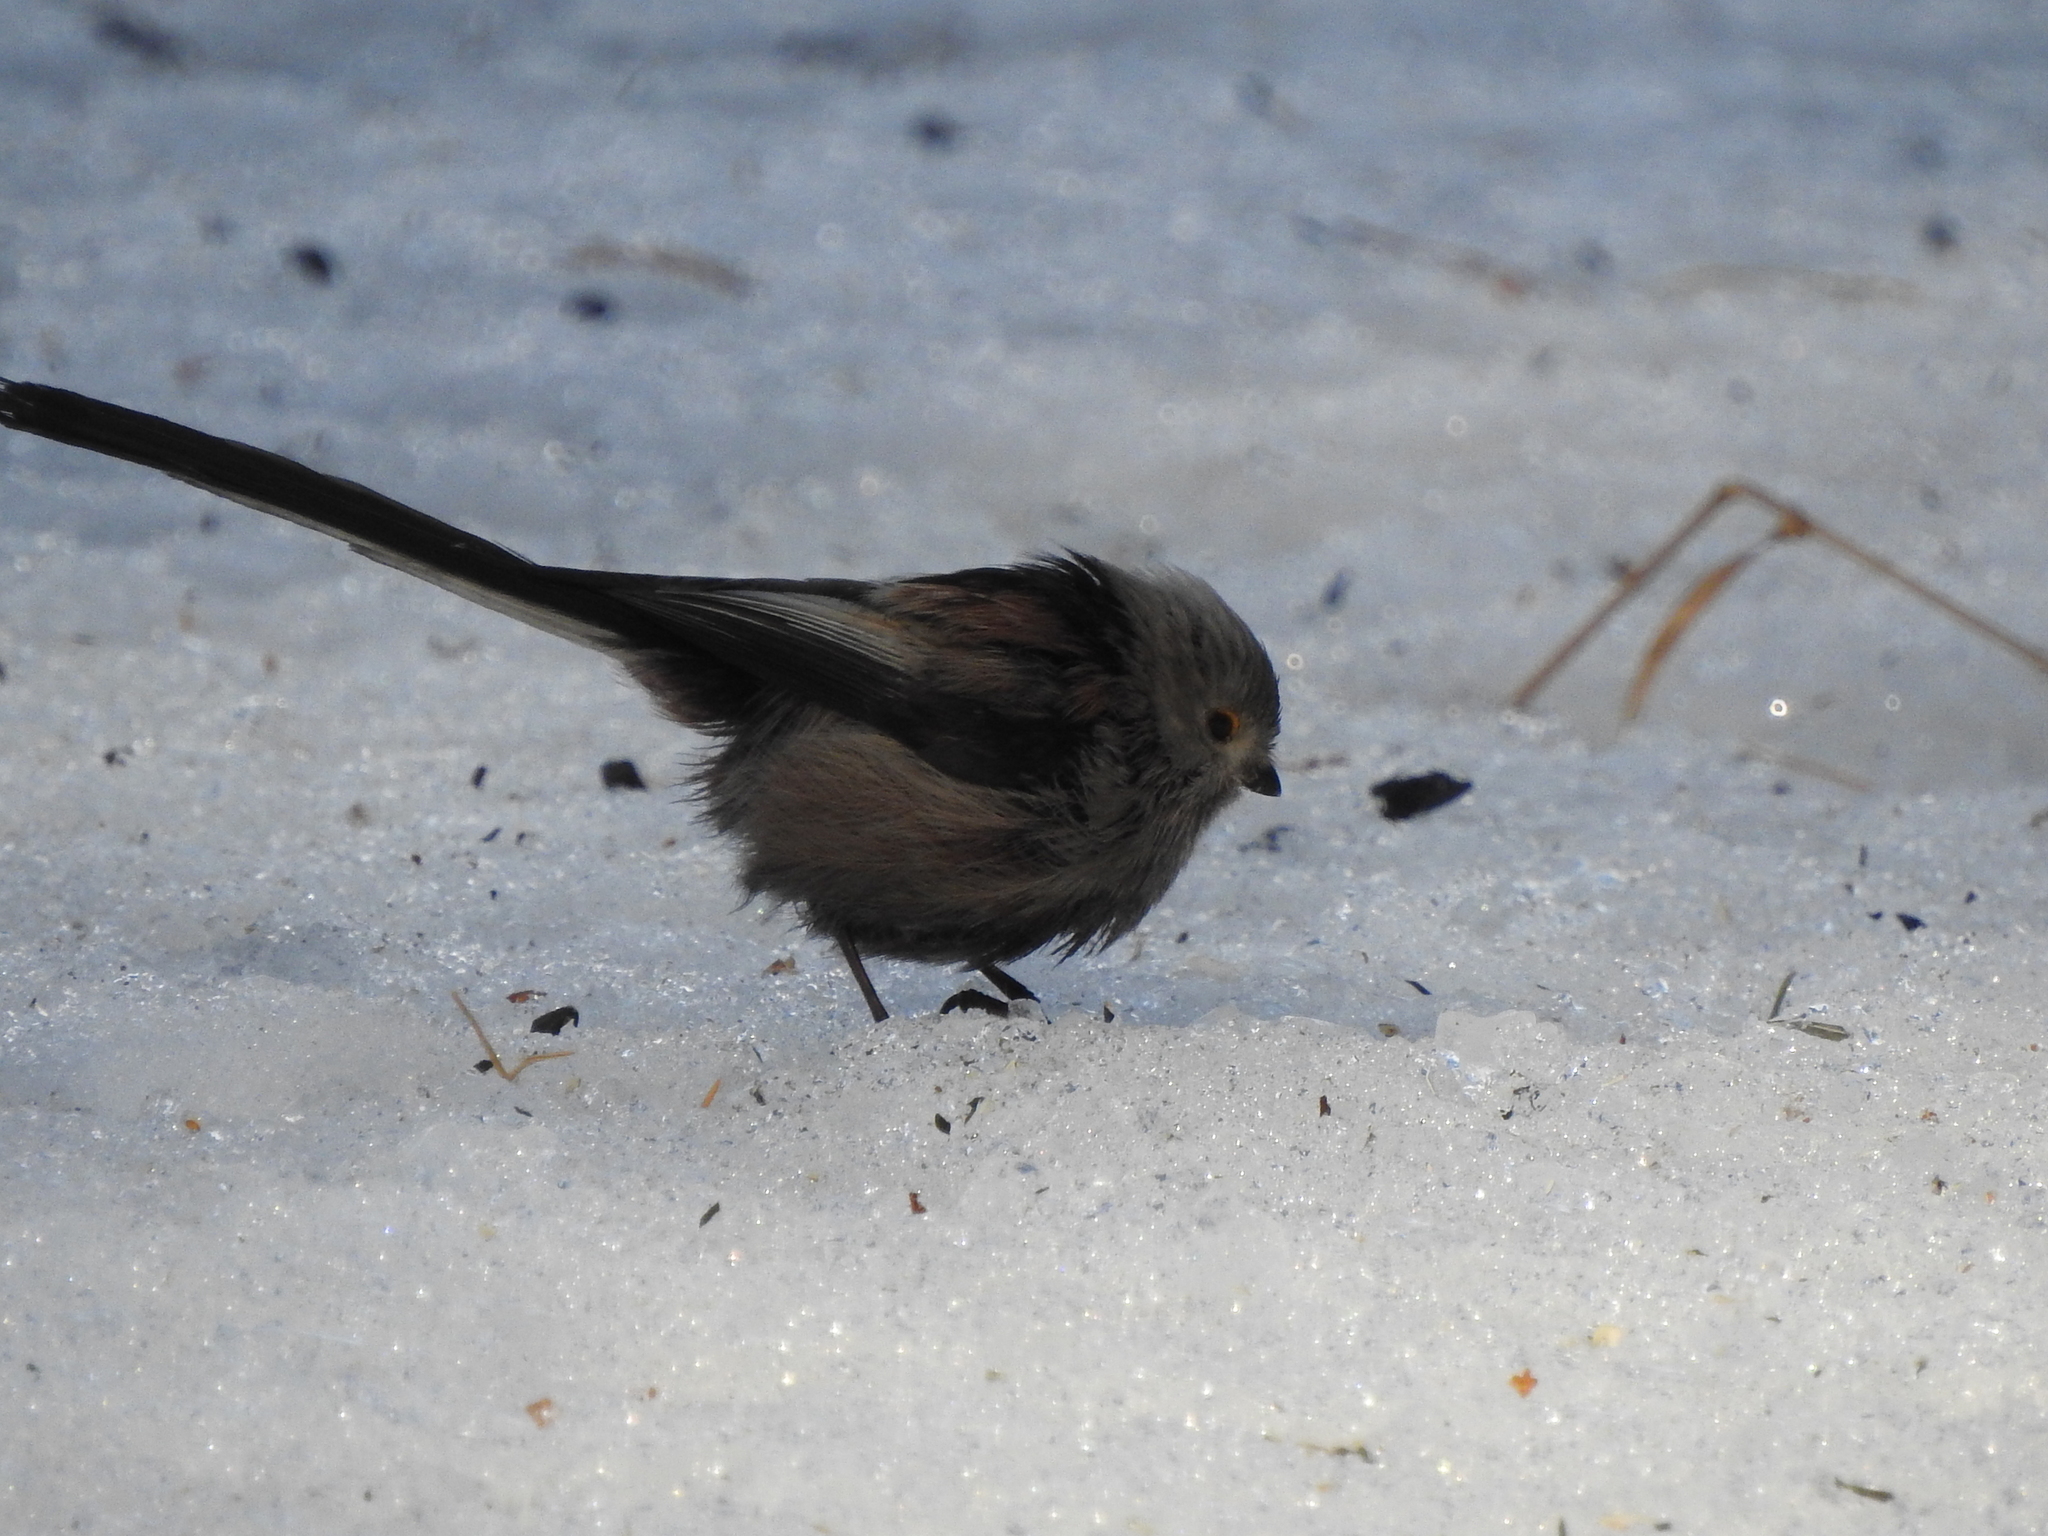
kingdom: Animalia
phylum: Chordata
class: Aves
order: Passeriformes
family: Aegithalidae
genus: Aegithalos
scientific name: Aegithalos caudatus
